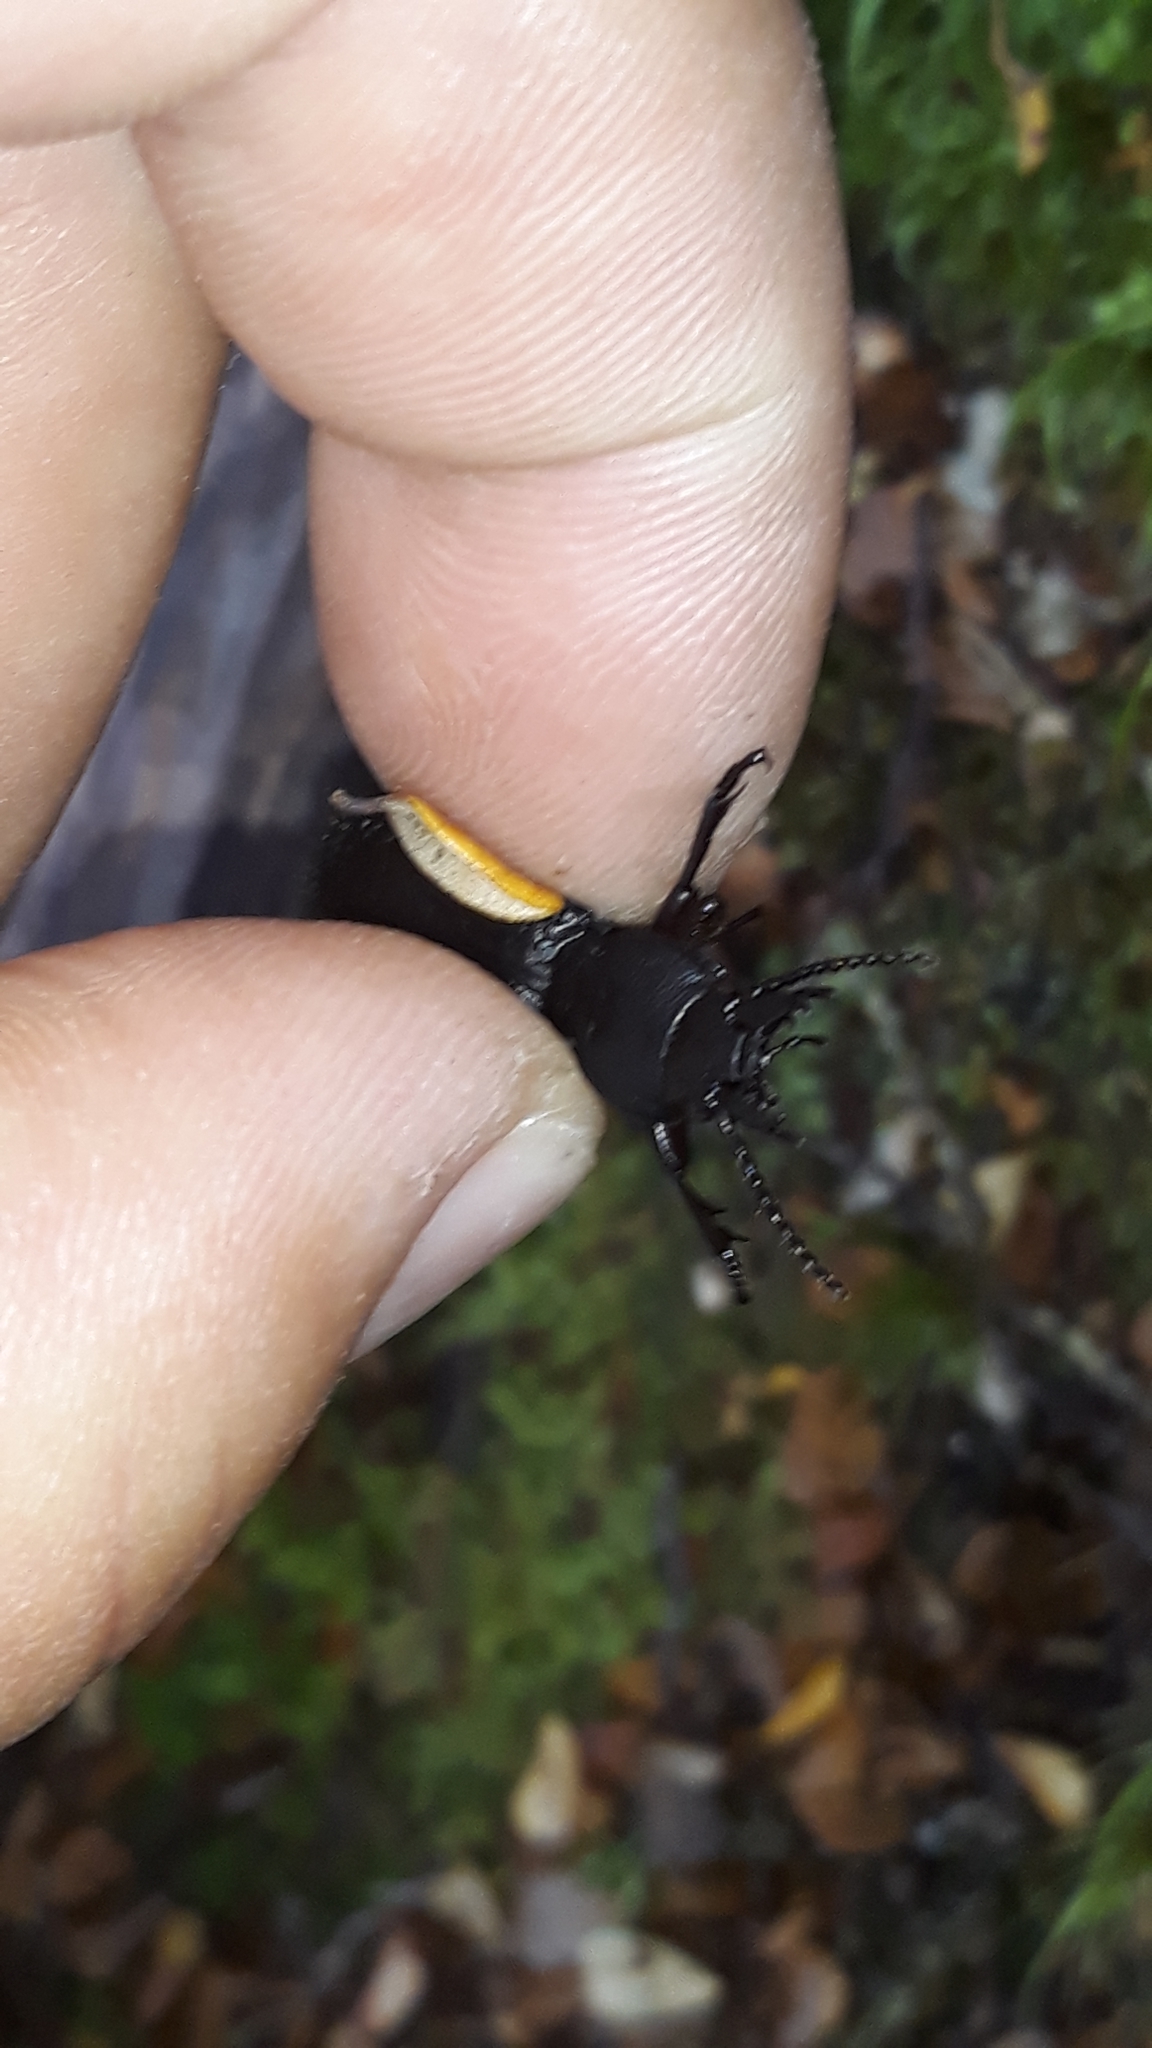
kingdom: Animalia
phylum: Arthropoda
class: Insecta
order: Coleoptera
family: Carabidae
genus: Mecodema
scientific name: Mecodema ducale
